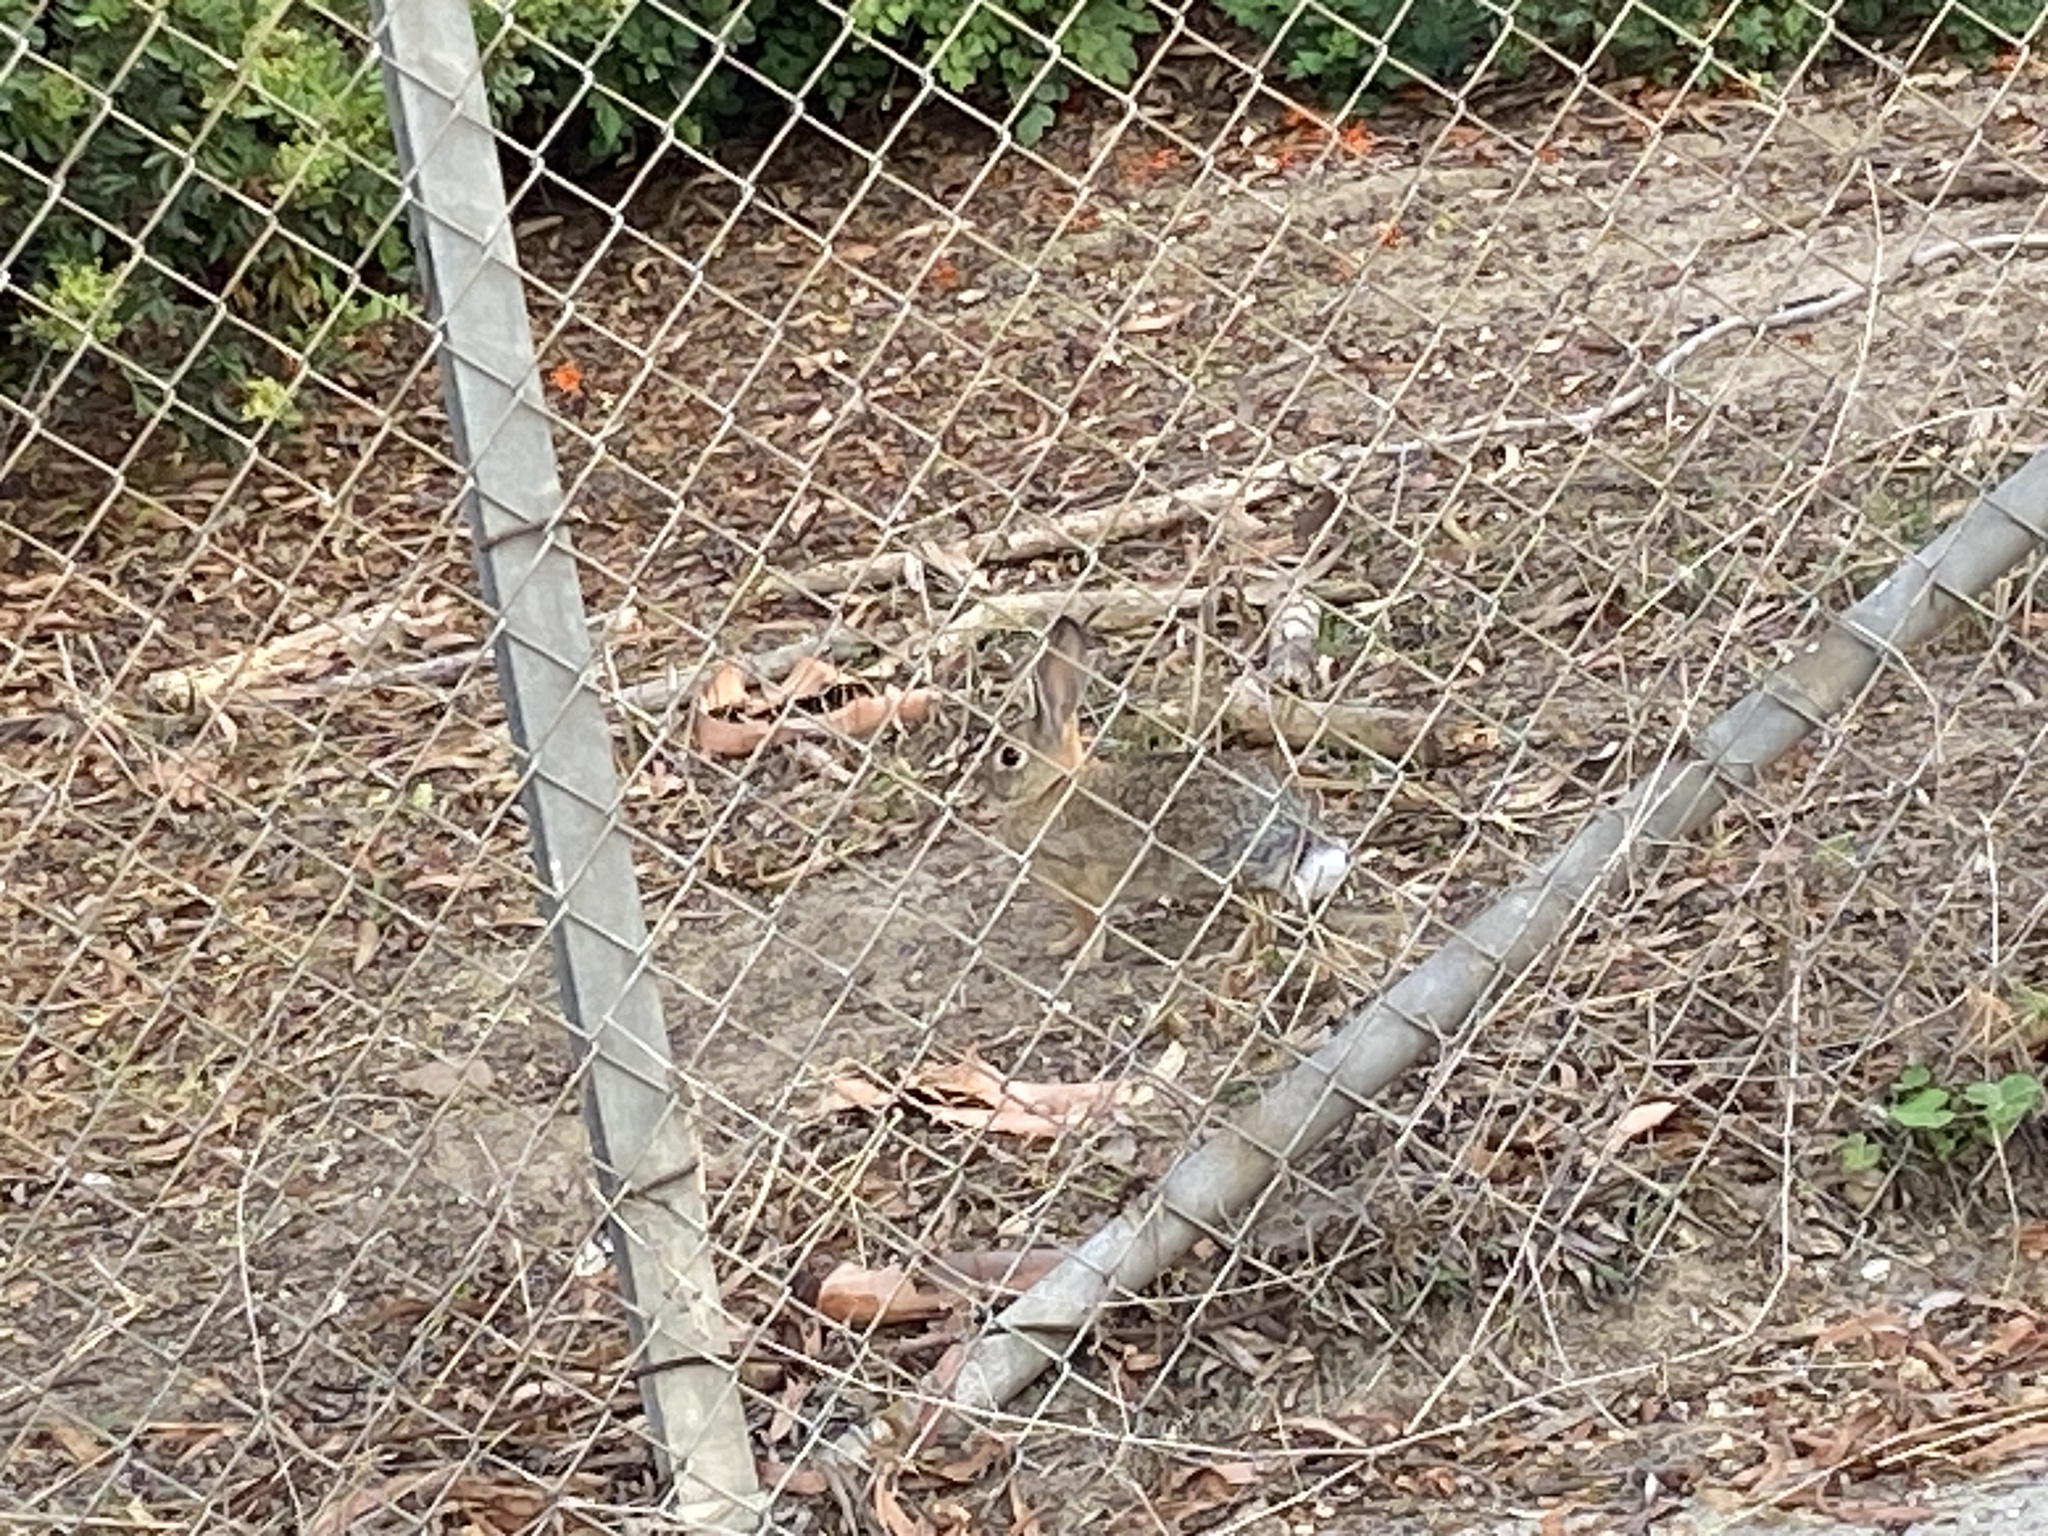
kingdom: Animalia
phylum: Chordata
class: Mammalia
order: Lagomorpha
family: Leporidae
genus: Sylvilagus
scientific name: Sylvilagus audubonii
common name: Desert cottontail
